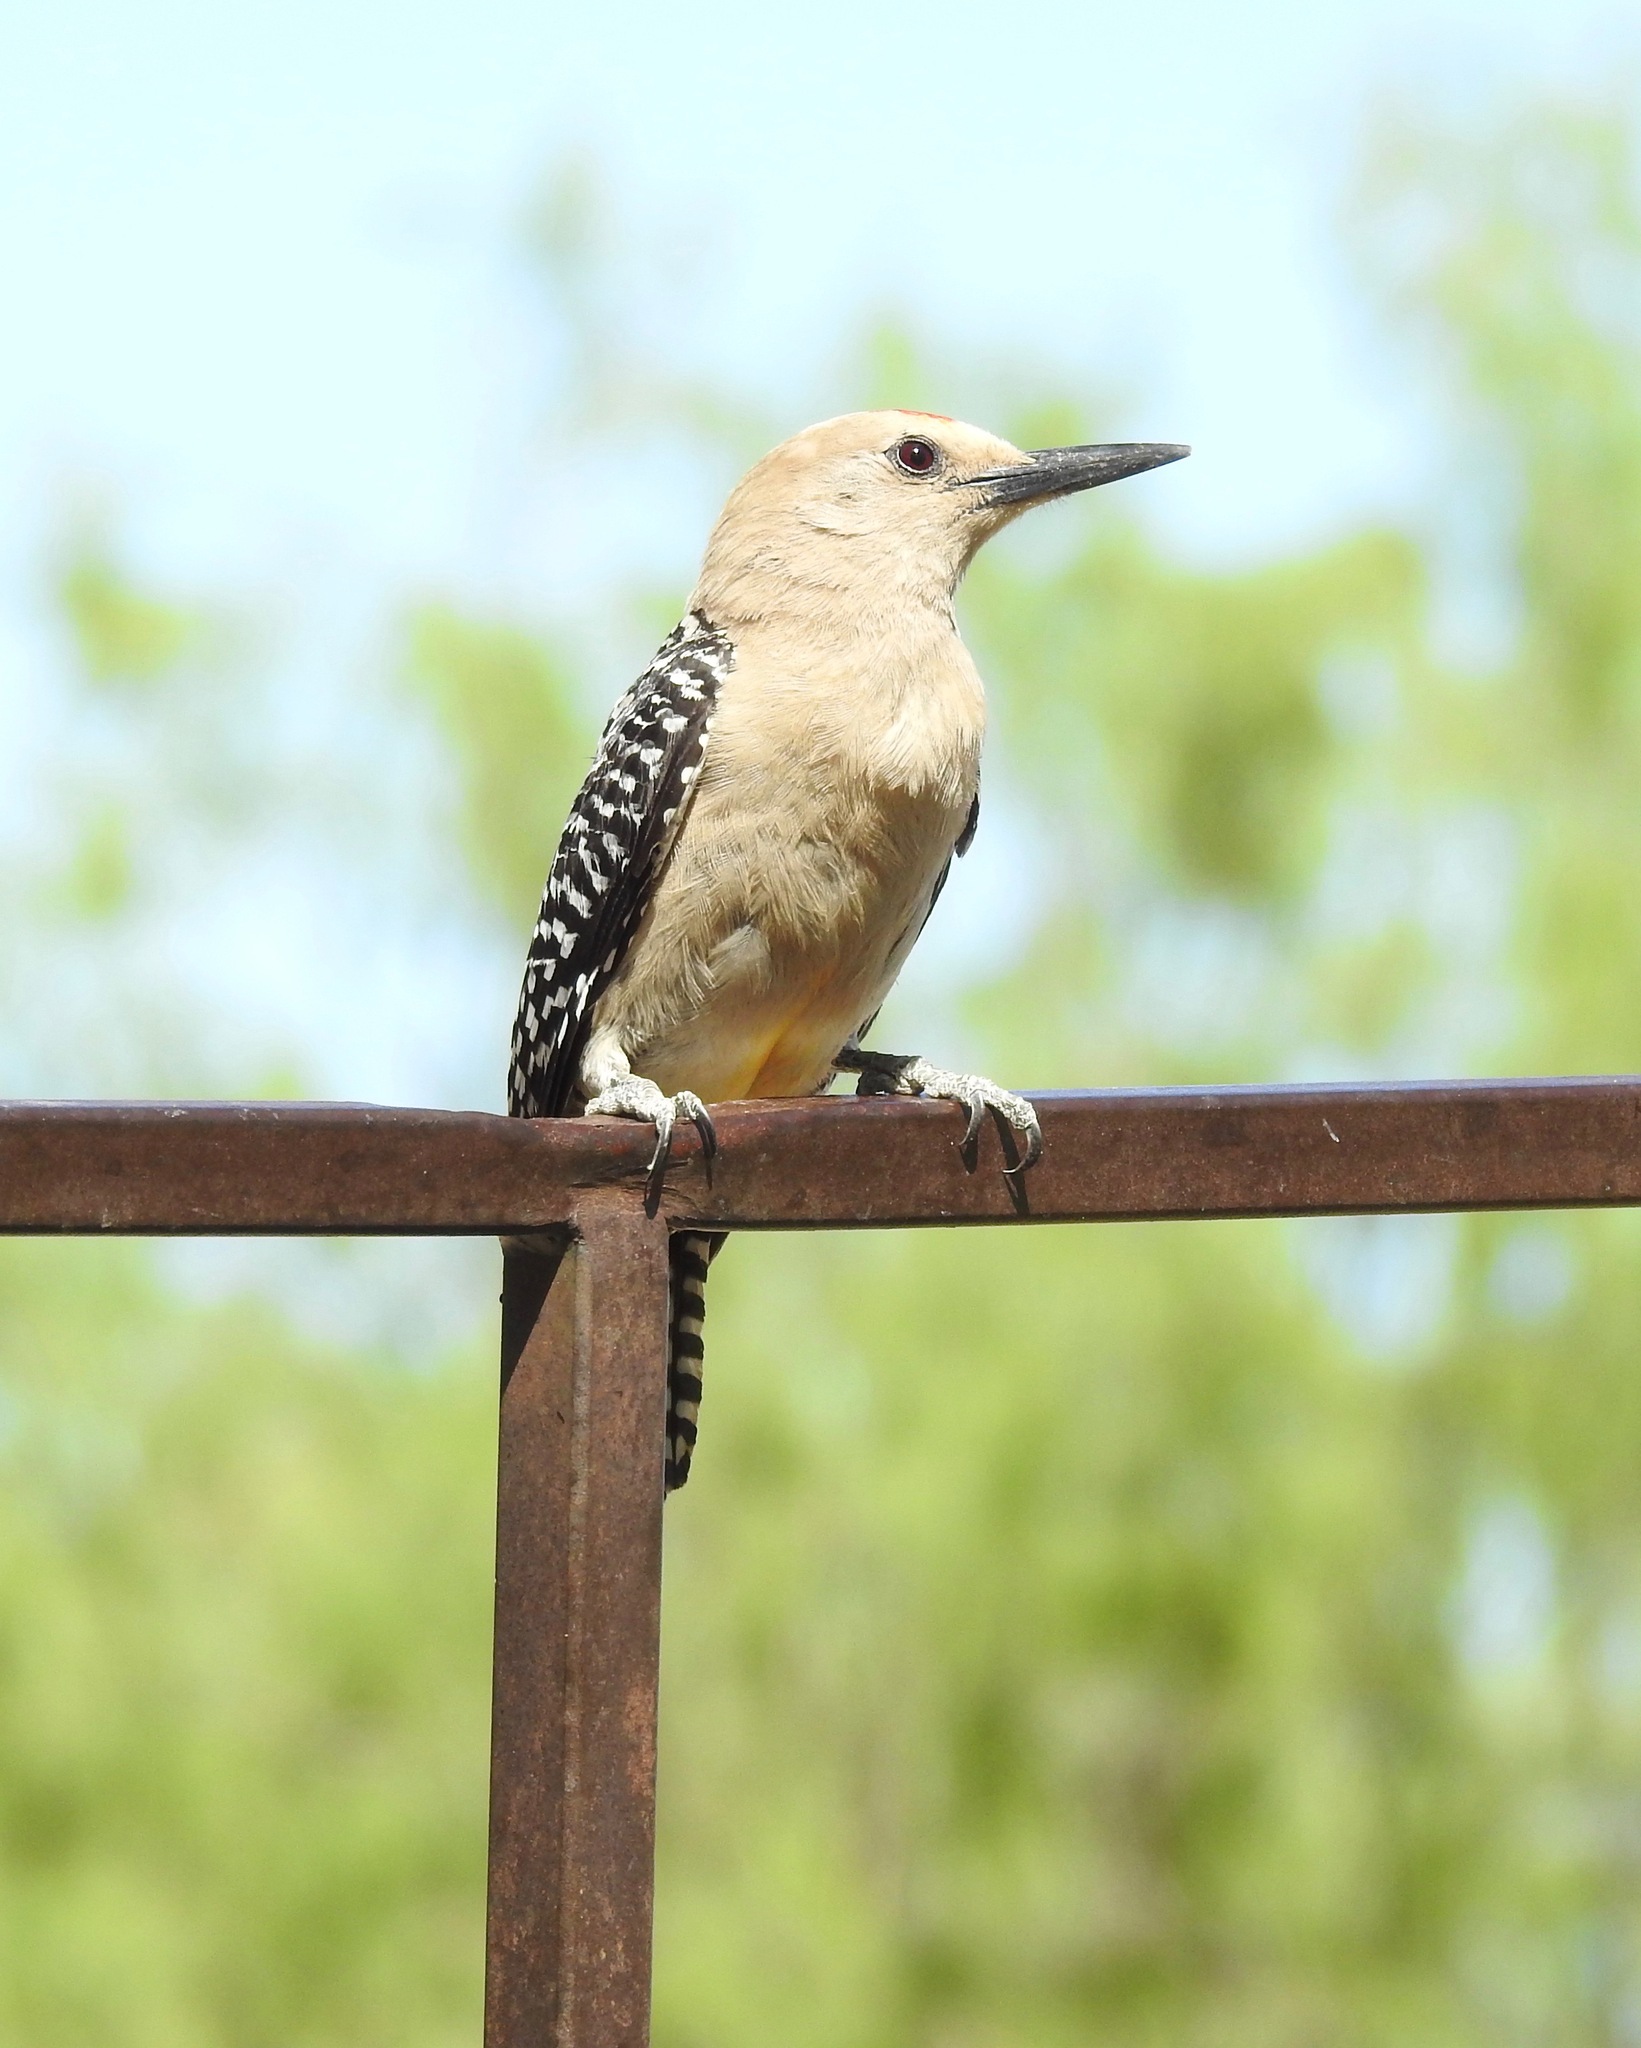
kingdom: Animalia
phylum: Chordata
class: Aves
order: Piciformes
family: Picidae
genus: Melanerpes
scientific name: Melanerpes uropygialis
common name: Gila woodpecker
